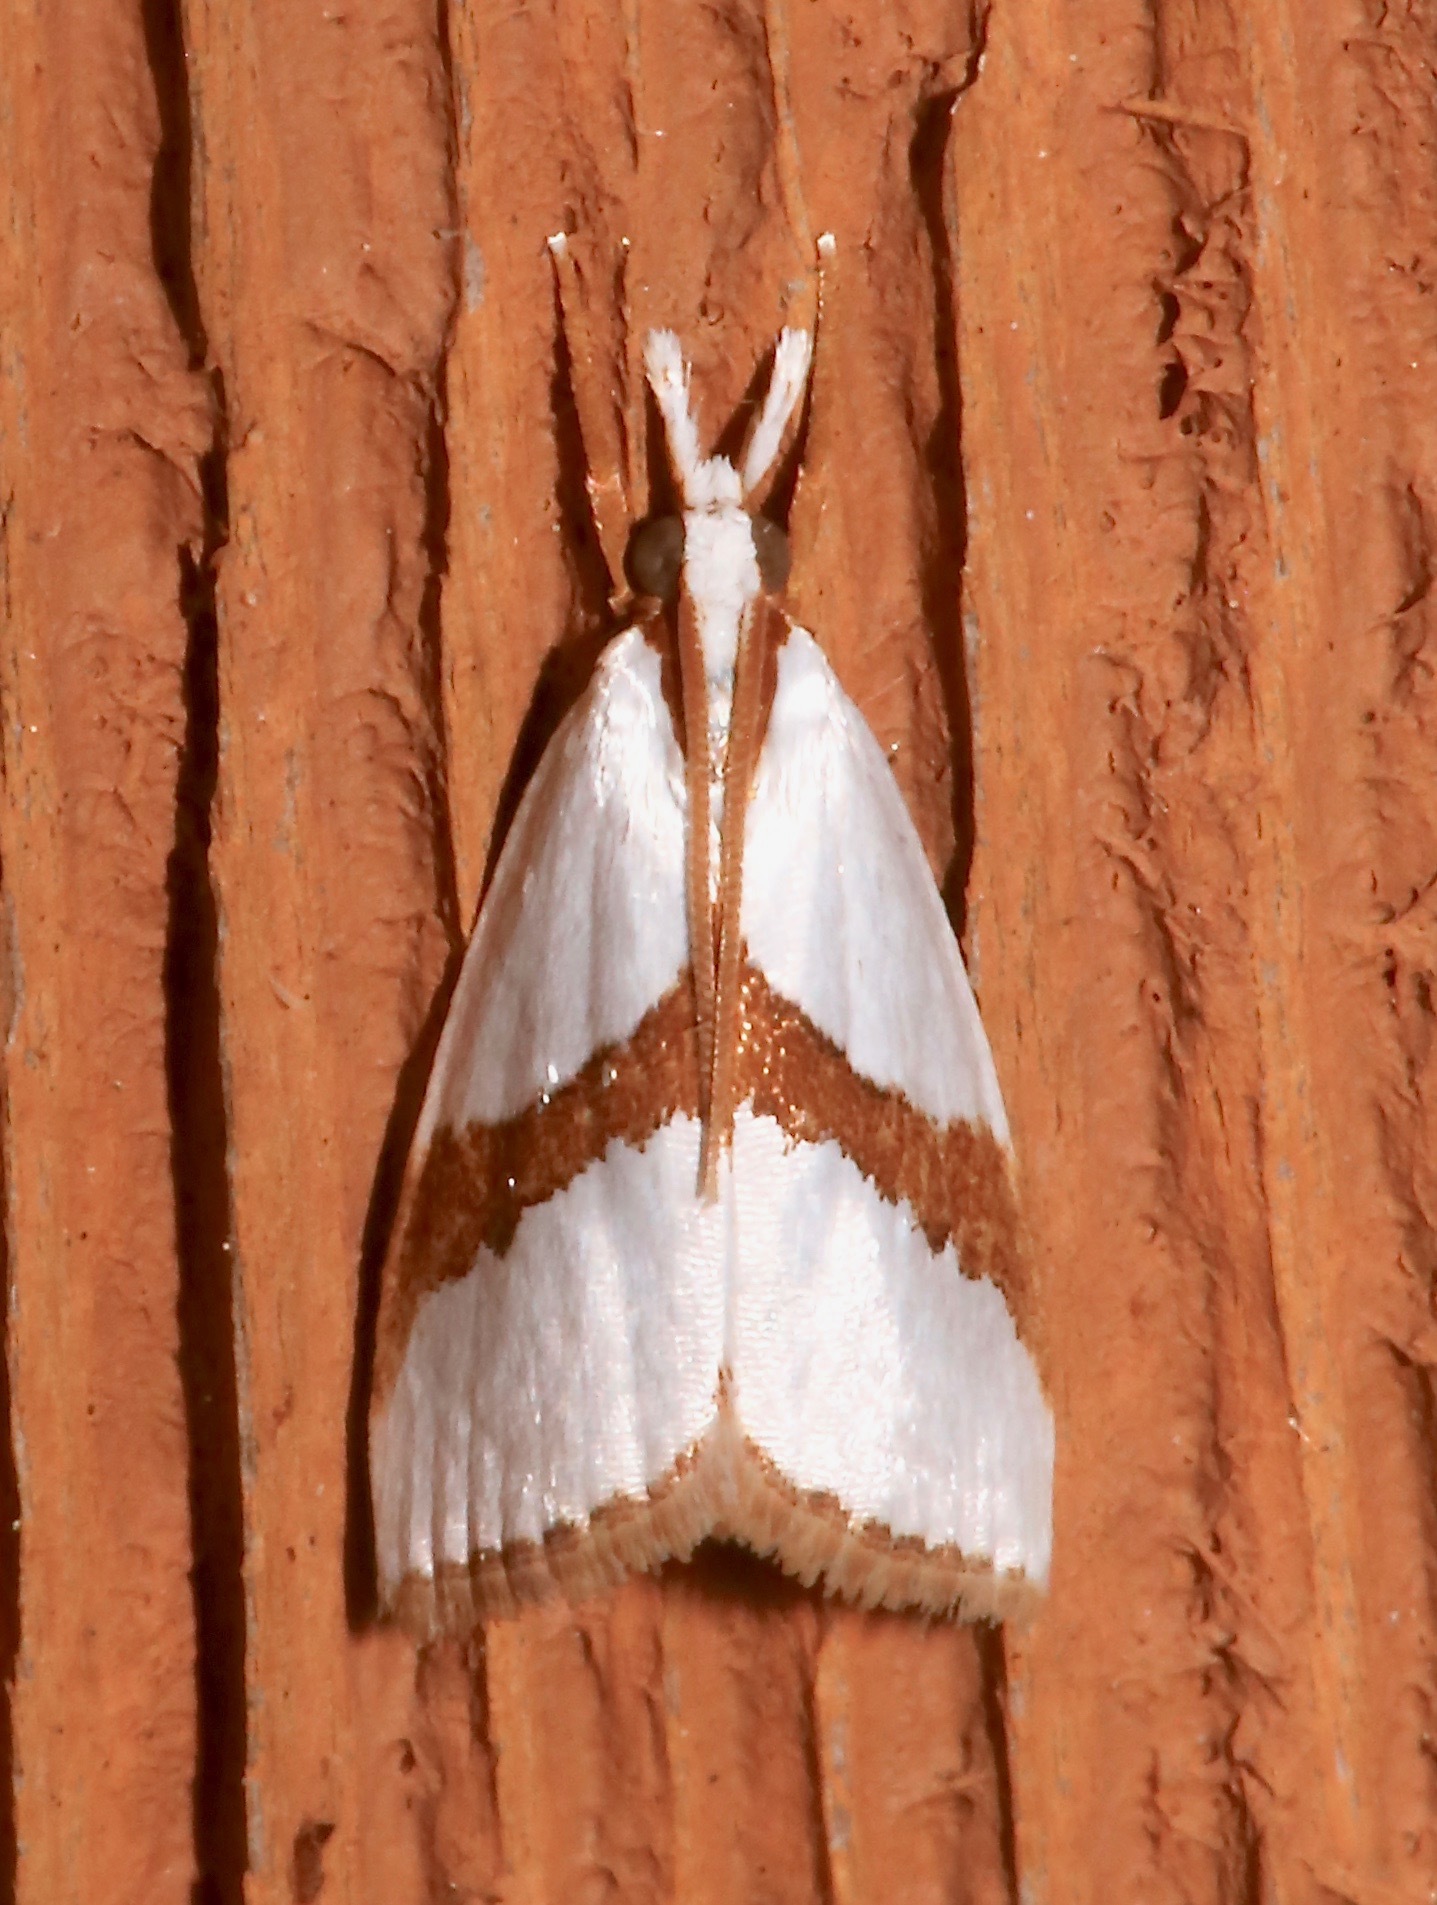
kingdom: Animalia
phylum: Arthropoda
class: Insecta
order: Lepidoptera
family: Crambidae
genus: Vaxi
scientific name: Vaxi critica
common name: Straight-lined vaxi moth
